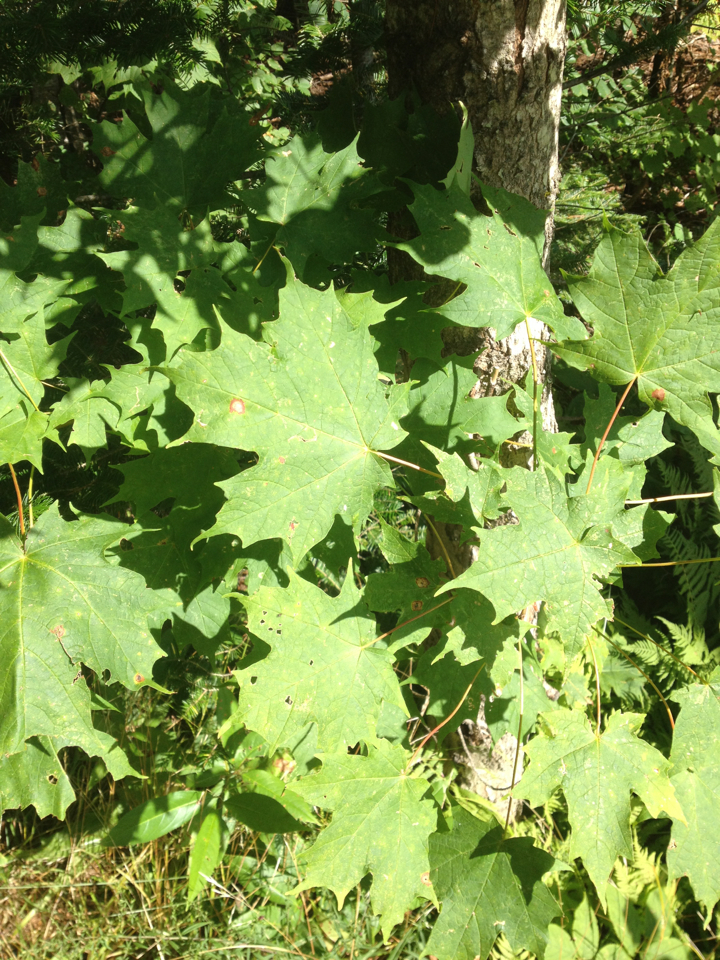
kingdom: Plantae
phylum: Tracheophyta
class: Magnoliopsida
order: Sapindales
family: Sapindaceae
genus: Acer
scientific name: Acer saccharum
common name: Sugar maple
